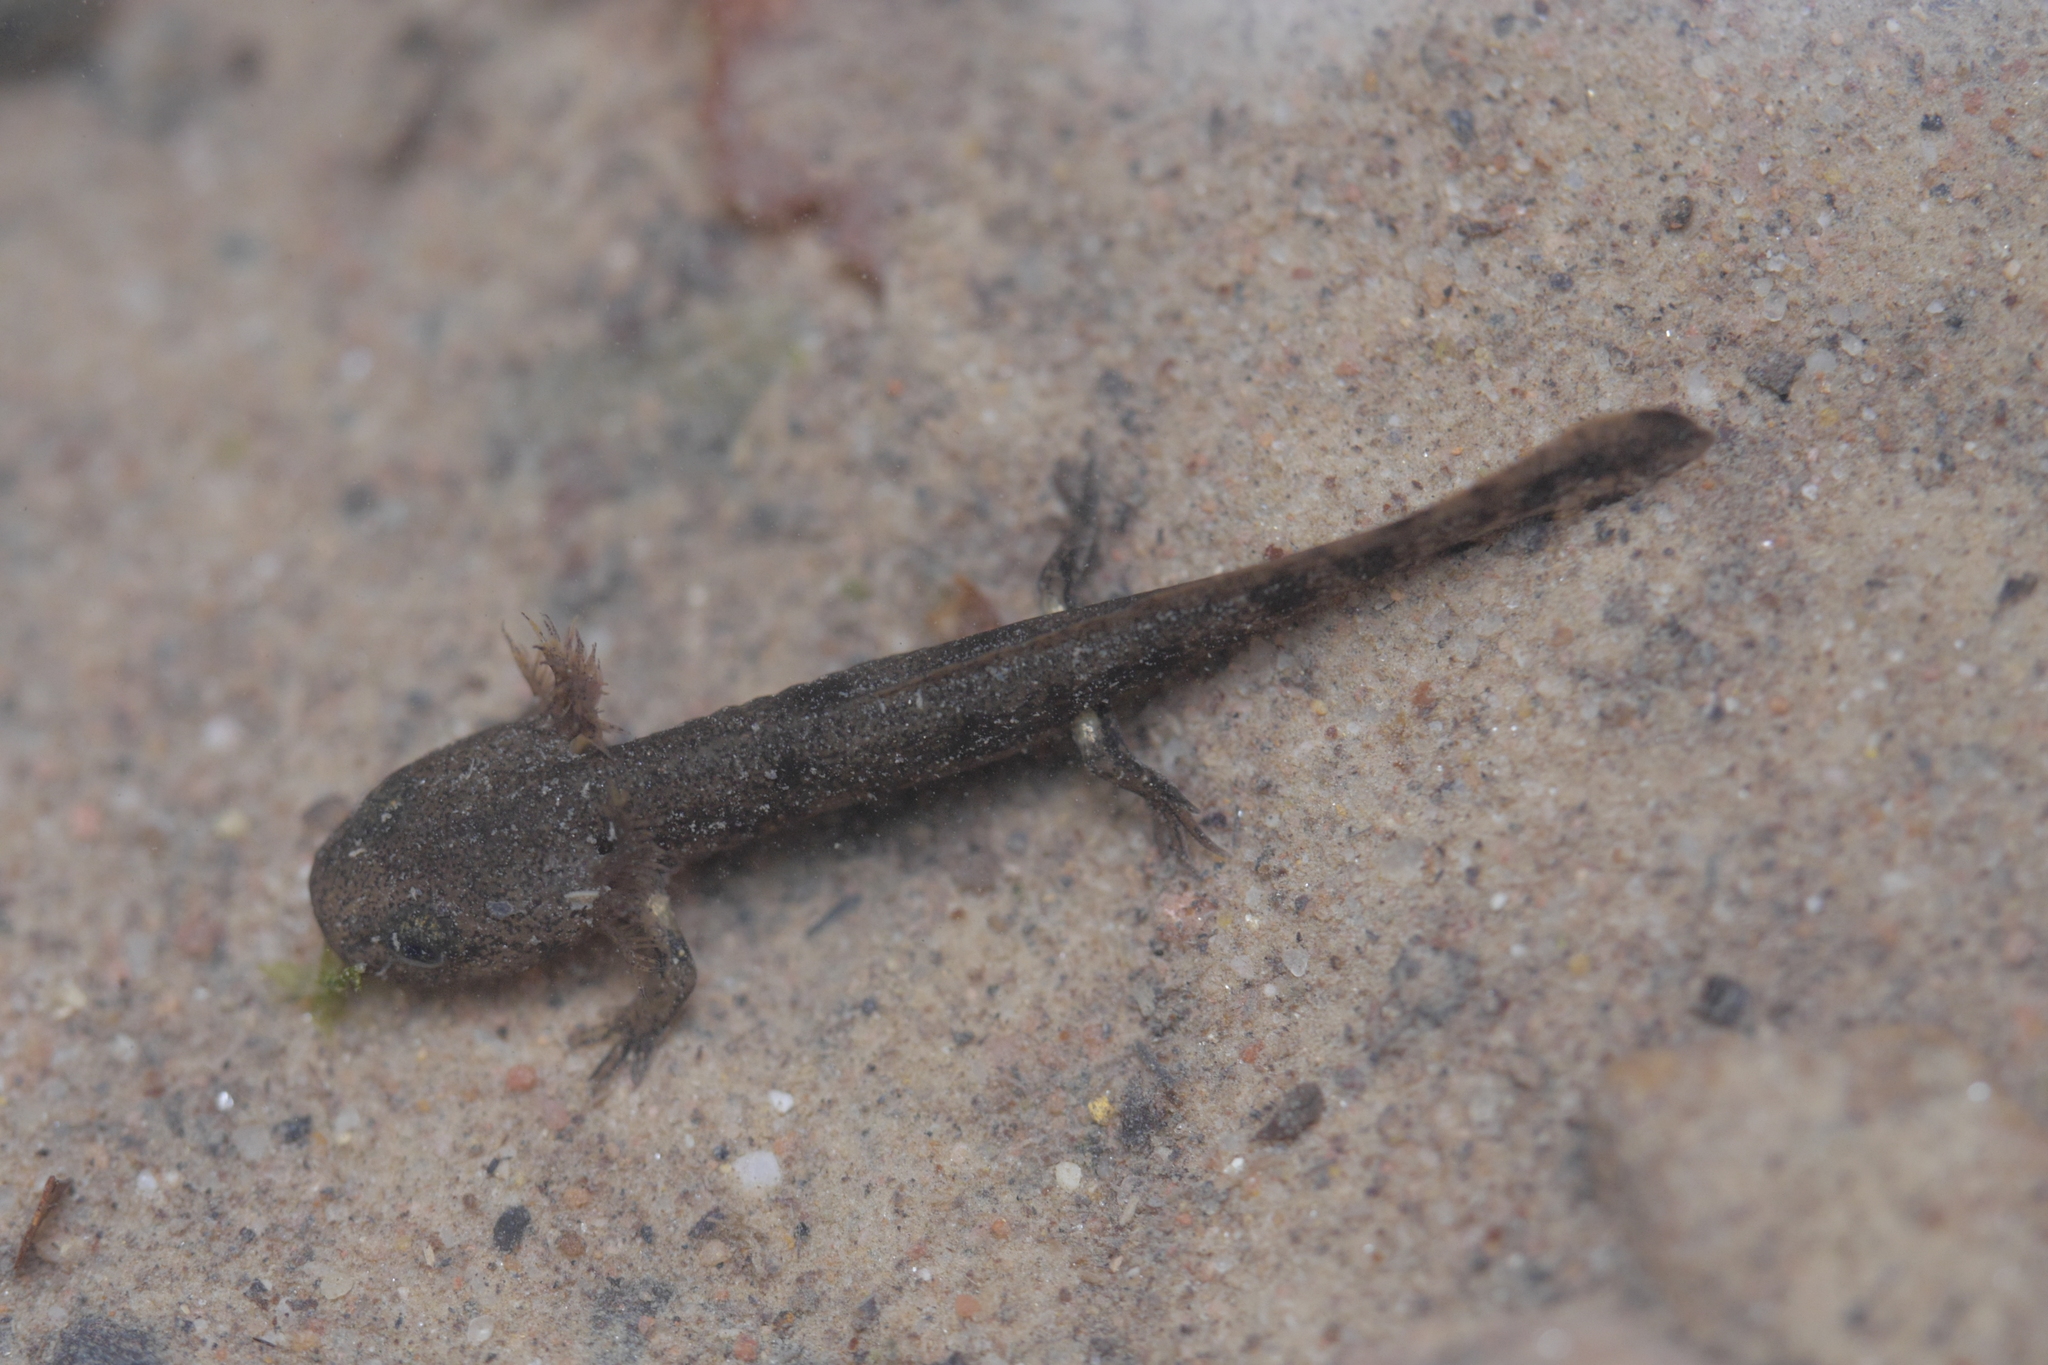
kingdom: Animalia
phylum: Chordata
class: Amphibia
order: Caudata
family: Salamandridae
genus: Salamandra
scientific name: Salamandra salamandra
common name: Fire salamander
